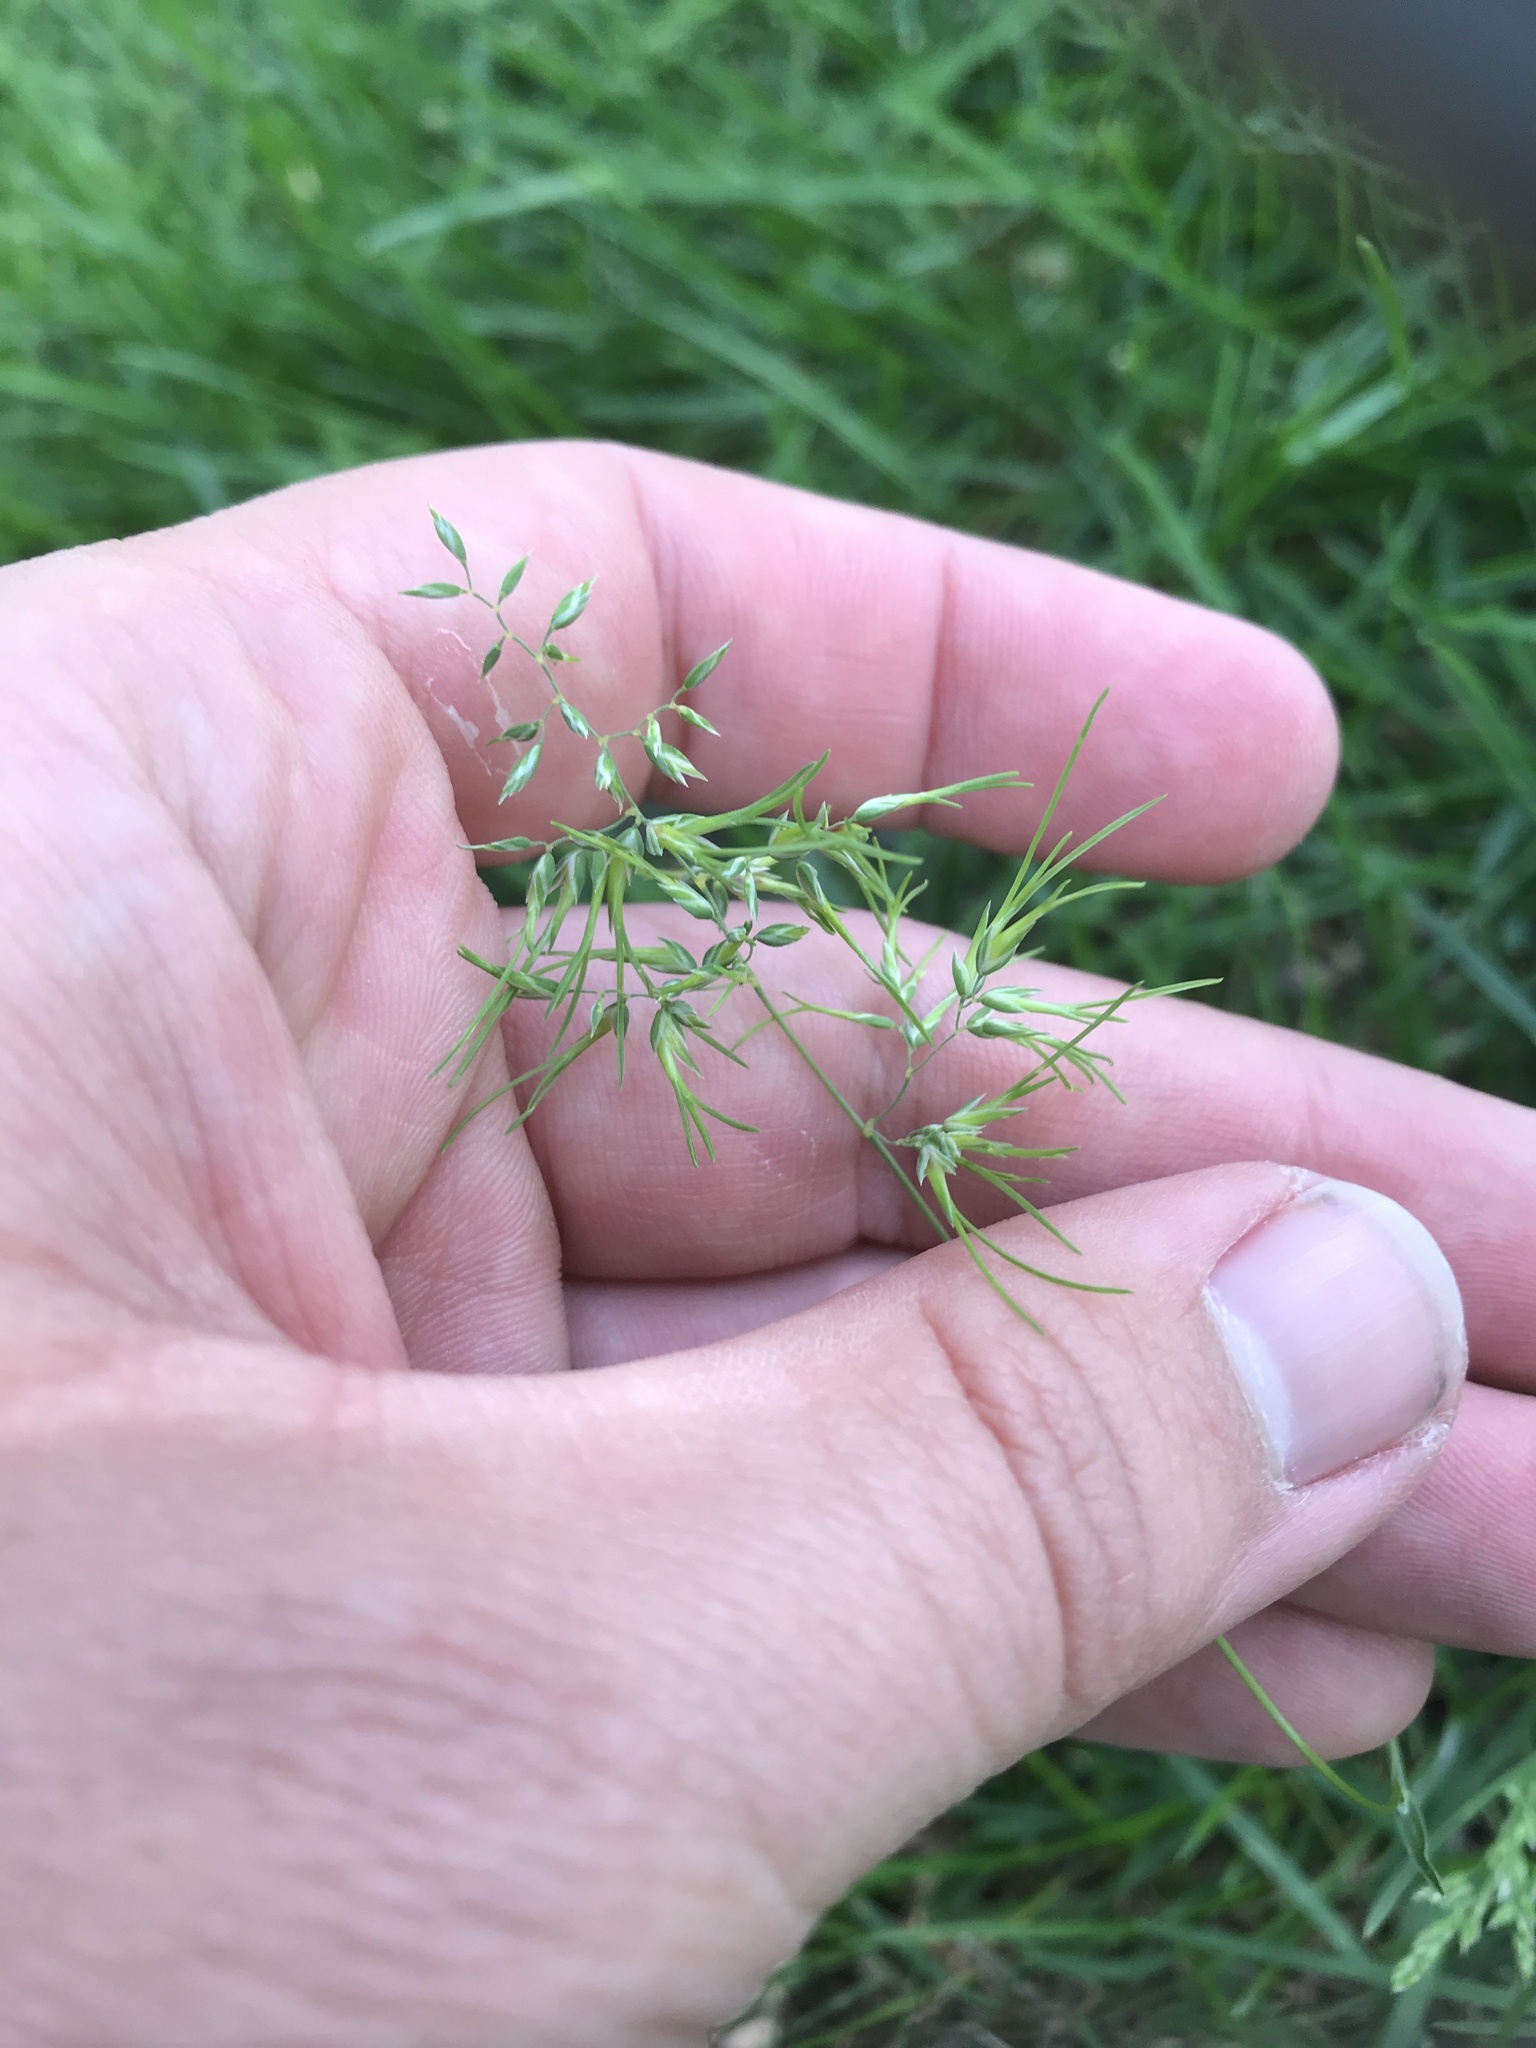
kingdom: Plantae
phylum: Tracheophyta
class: Liliopsida
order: Poales
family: Poaceae
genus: Poa
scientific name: Poa bulbosa
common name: Bulbous bluegrass
